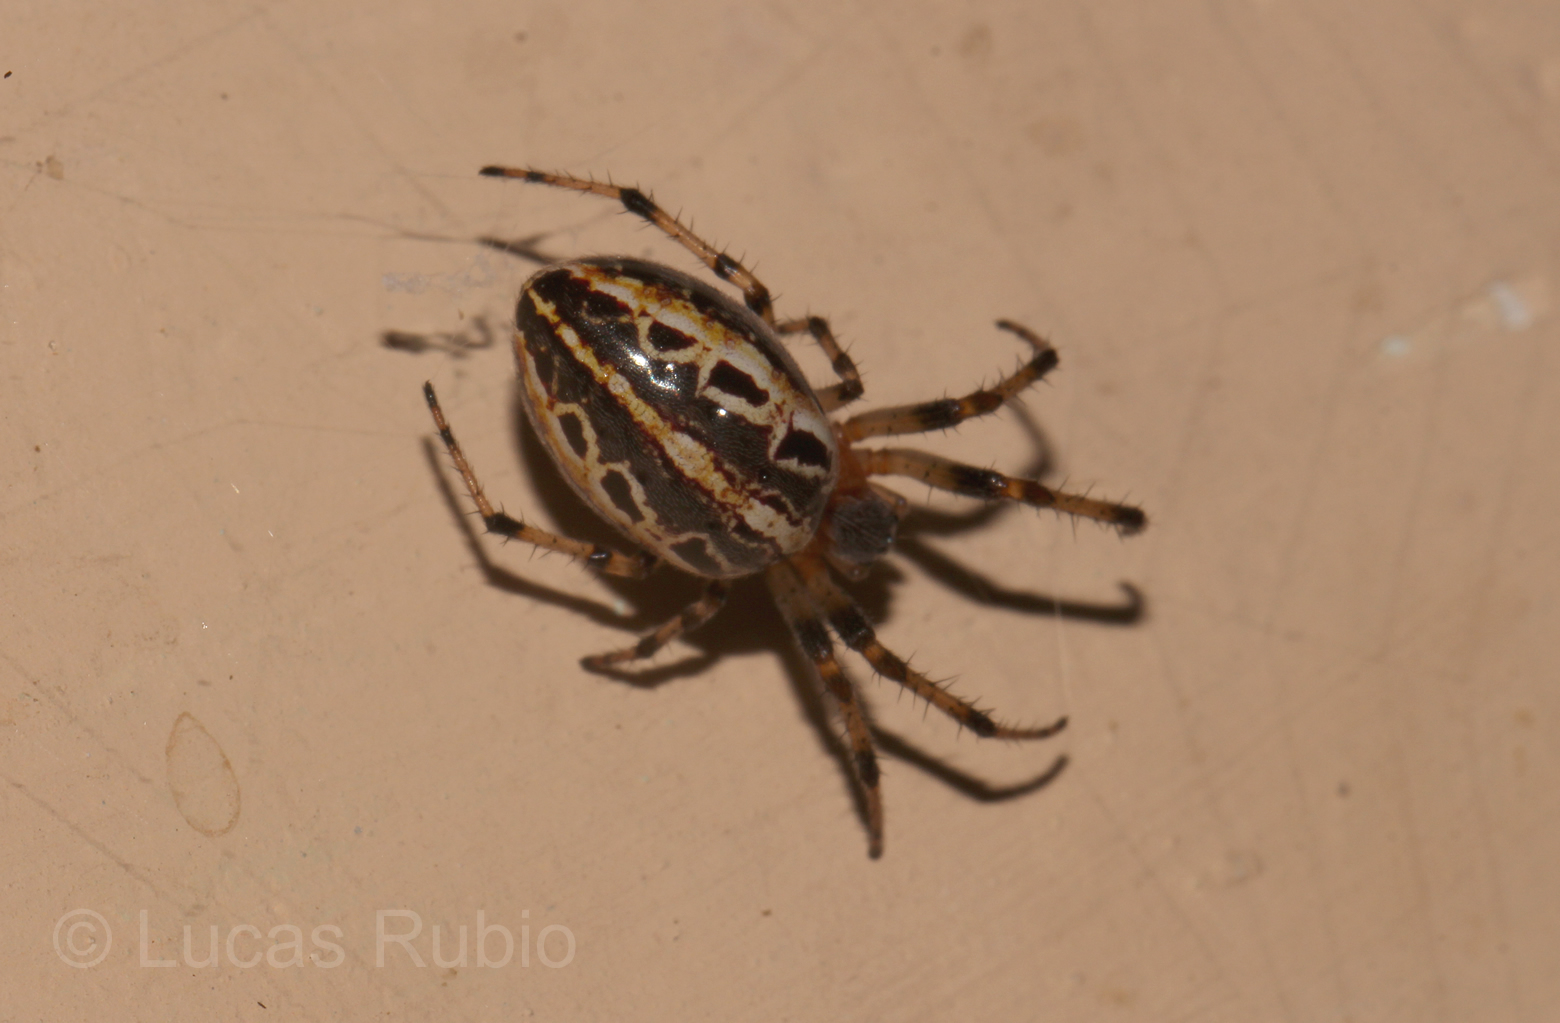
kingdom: Animalia
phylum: Arthropoda
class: Arachnida
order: Araneae
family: Araneidae
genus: Alpaida
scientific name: Alpaida veniliae
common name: Orb weavers
